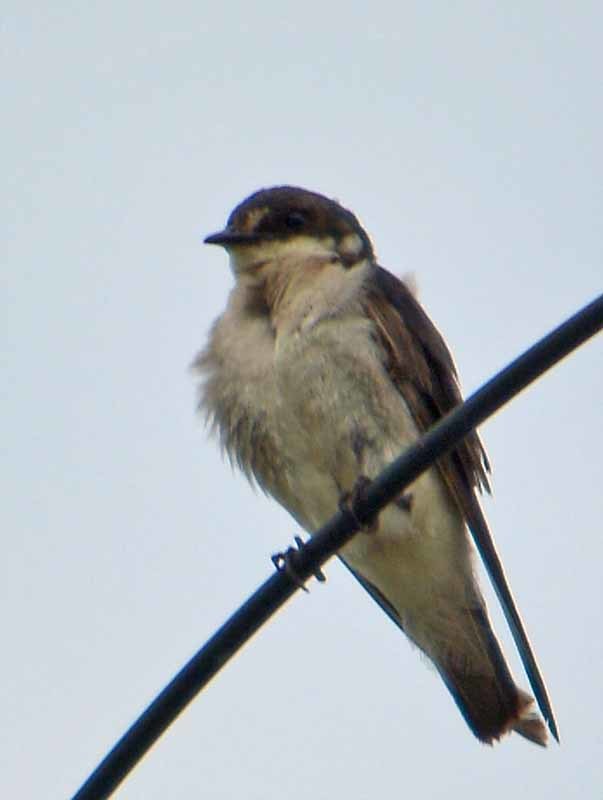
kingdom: Animalia
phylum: Chordata
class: Aves
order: Passeriformes
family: Hirundinidae
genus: Tachycineta
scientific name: Tachycineta albilinea
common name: Mangrove swallow
